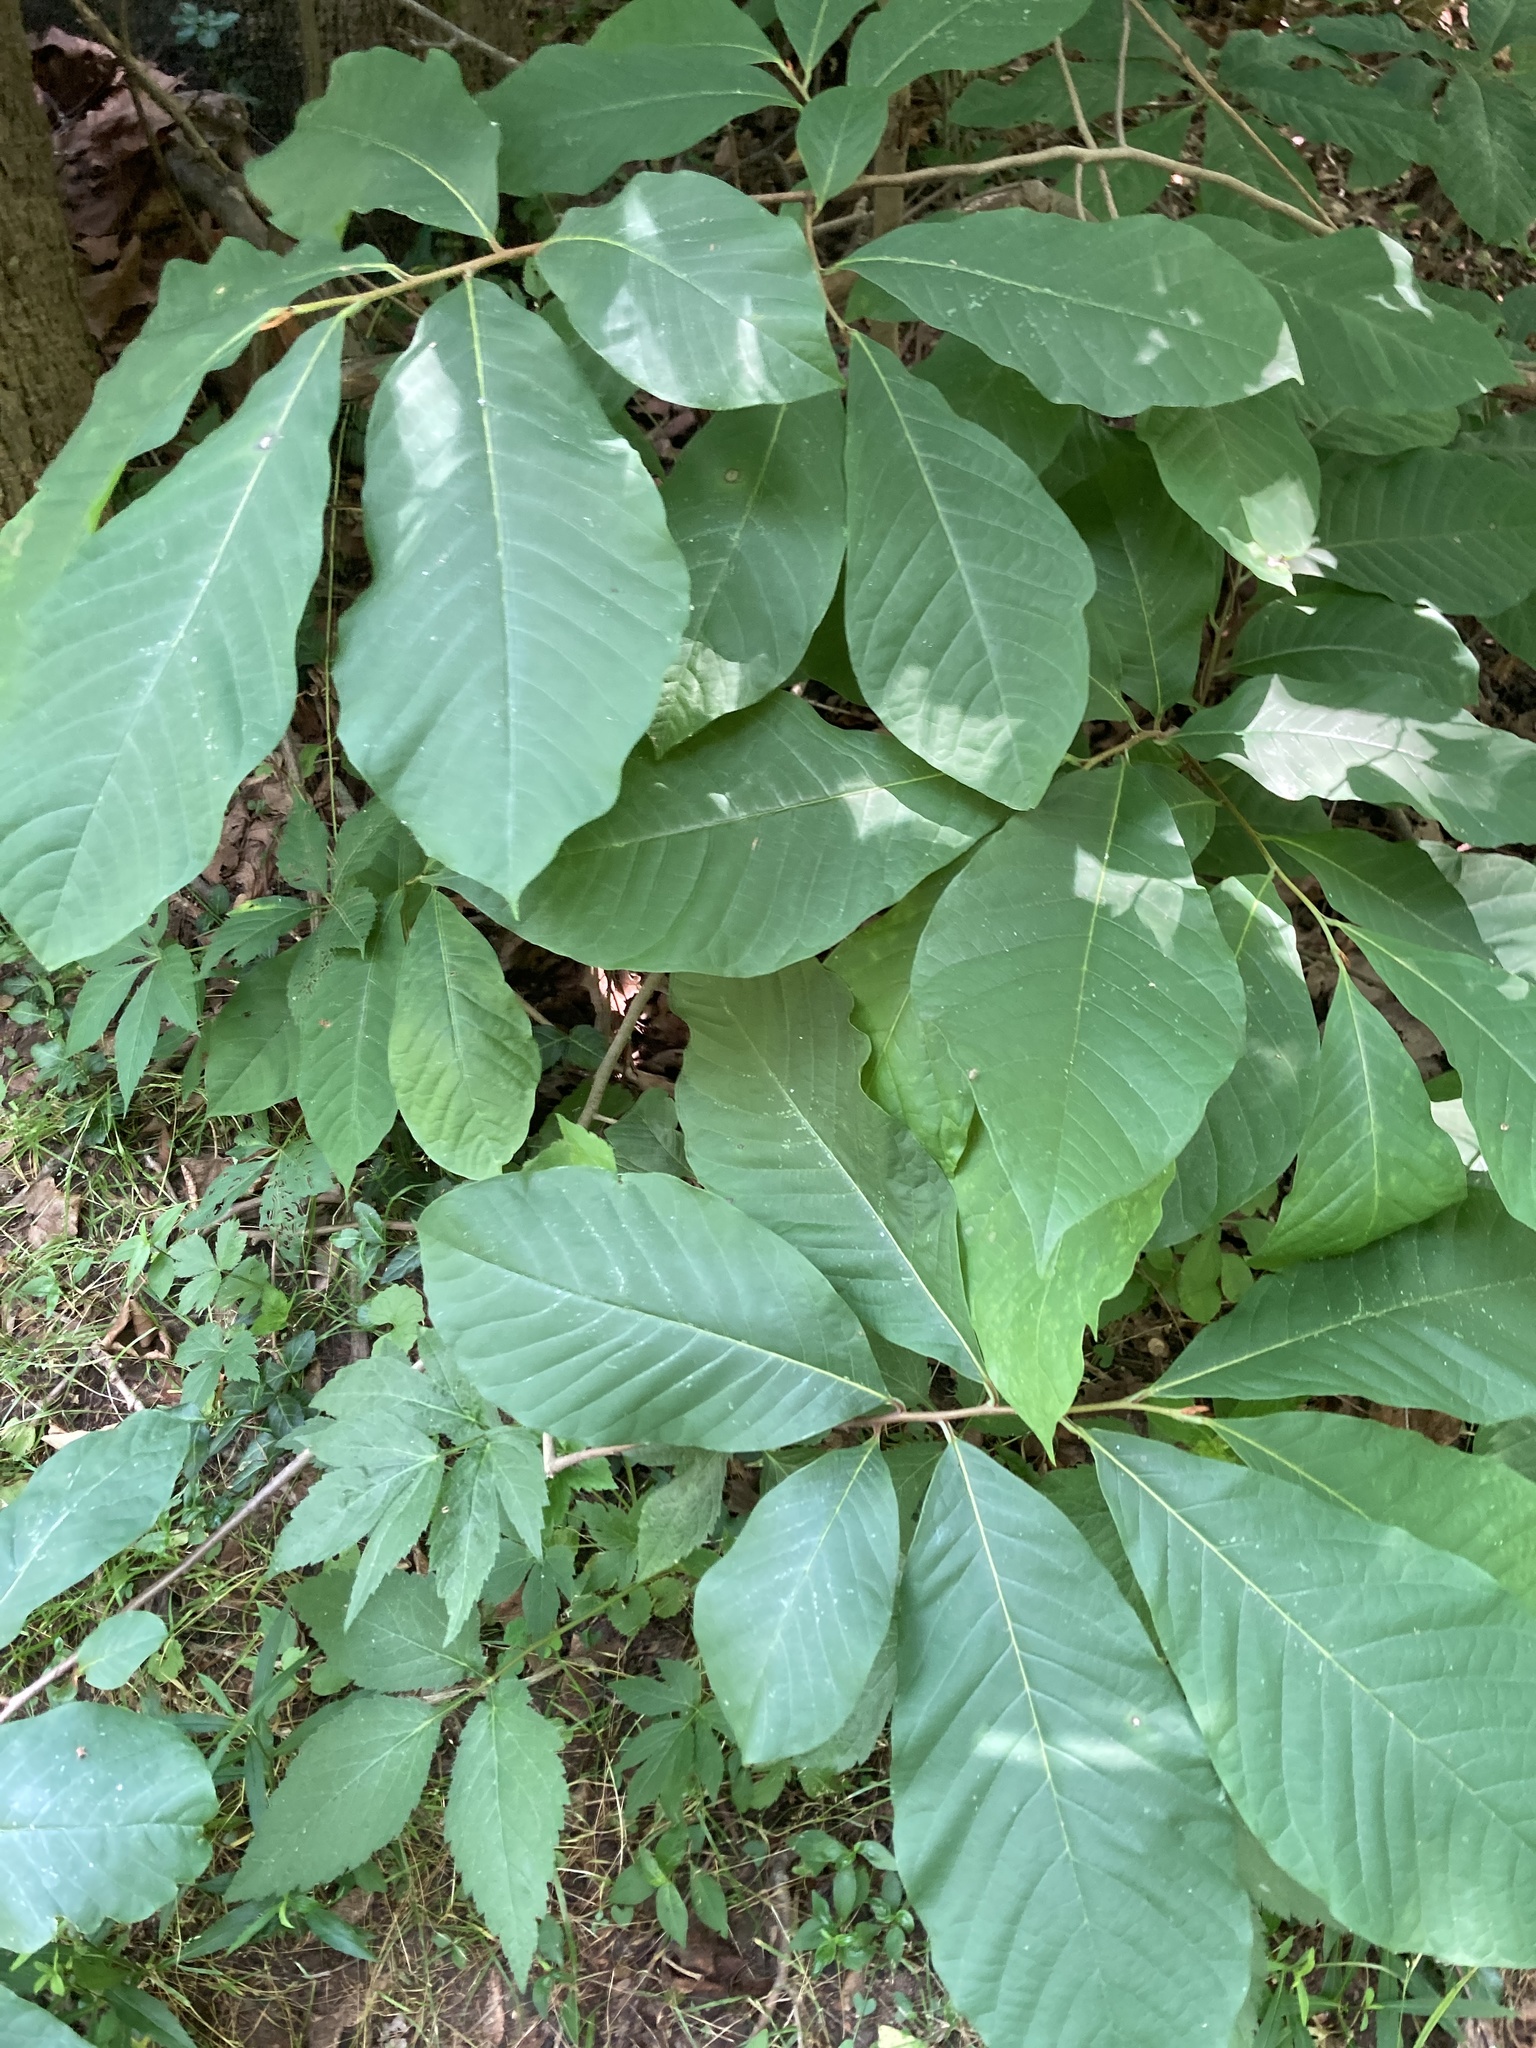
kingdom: Plantae
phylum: Tracheophyta
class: Magnoliopsida
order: Magnoliales
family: Annonaceae
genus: Asimina
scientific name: Asimina triloba
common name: Dog-banana
